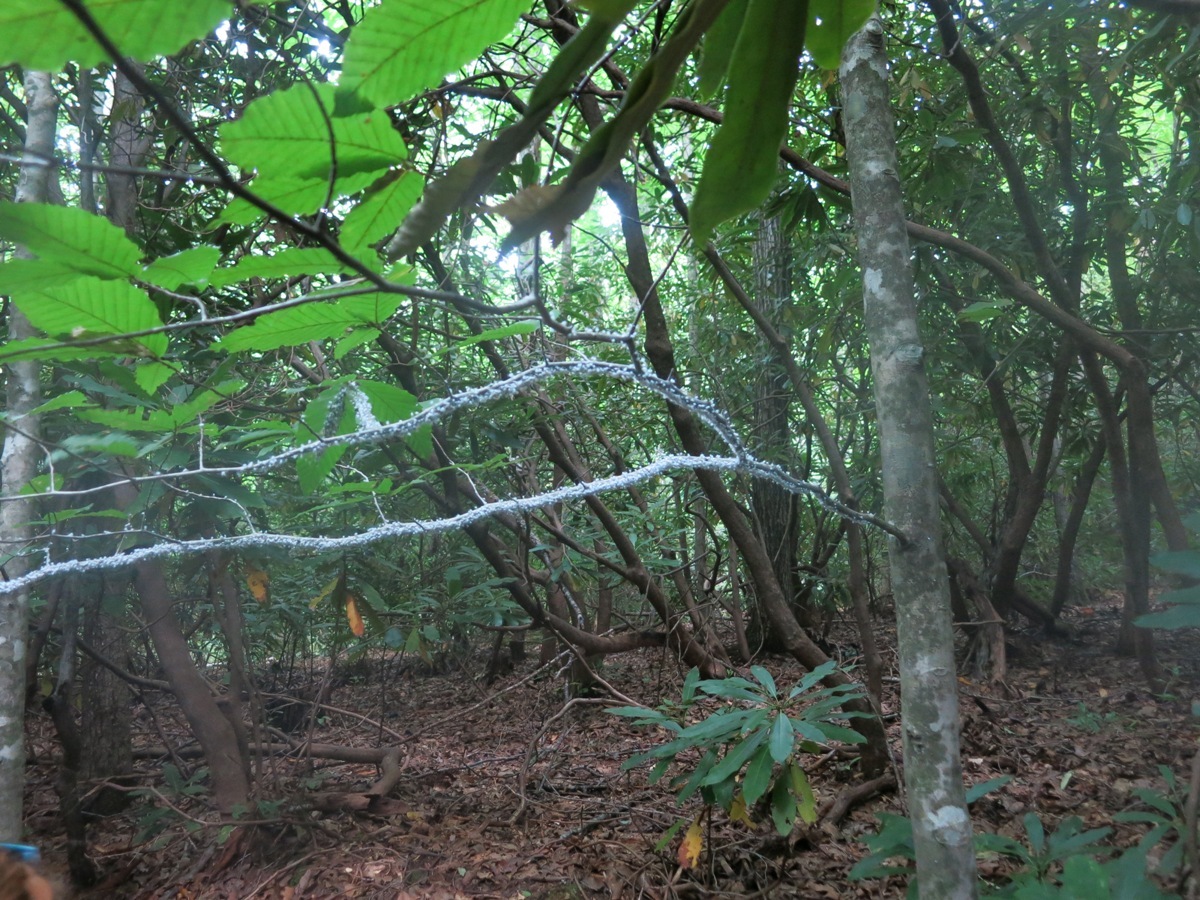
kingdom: Animalia
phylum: Arthropoda
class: Insecta
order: Hemiptera
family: Aphididae
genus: Grylloprociphilus
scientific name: Grylloprociphilus imbricator
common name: Beech blight aphid
